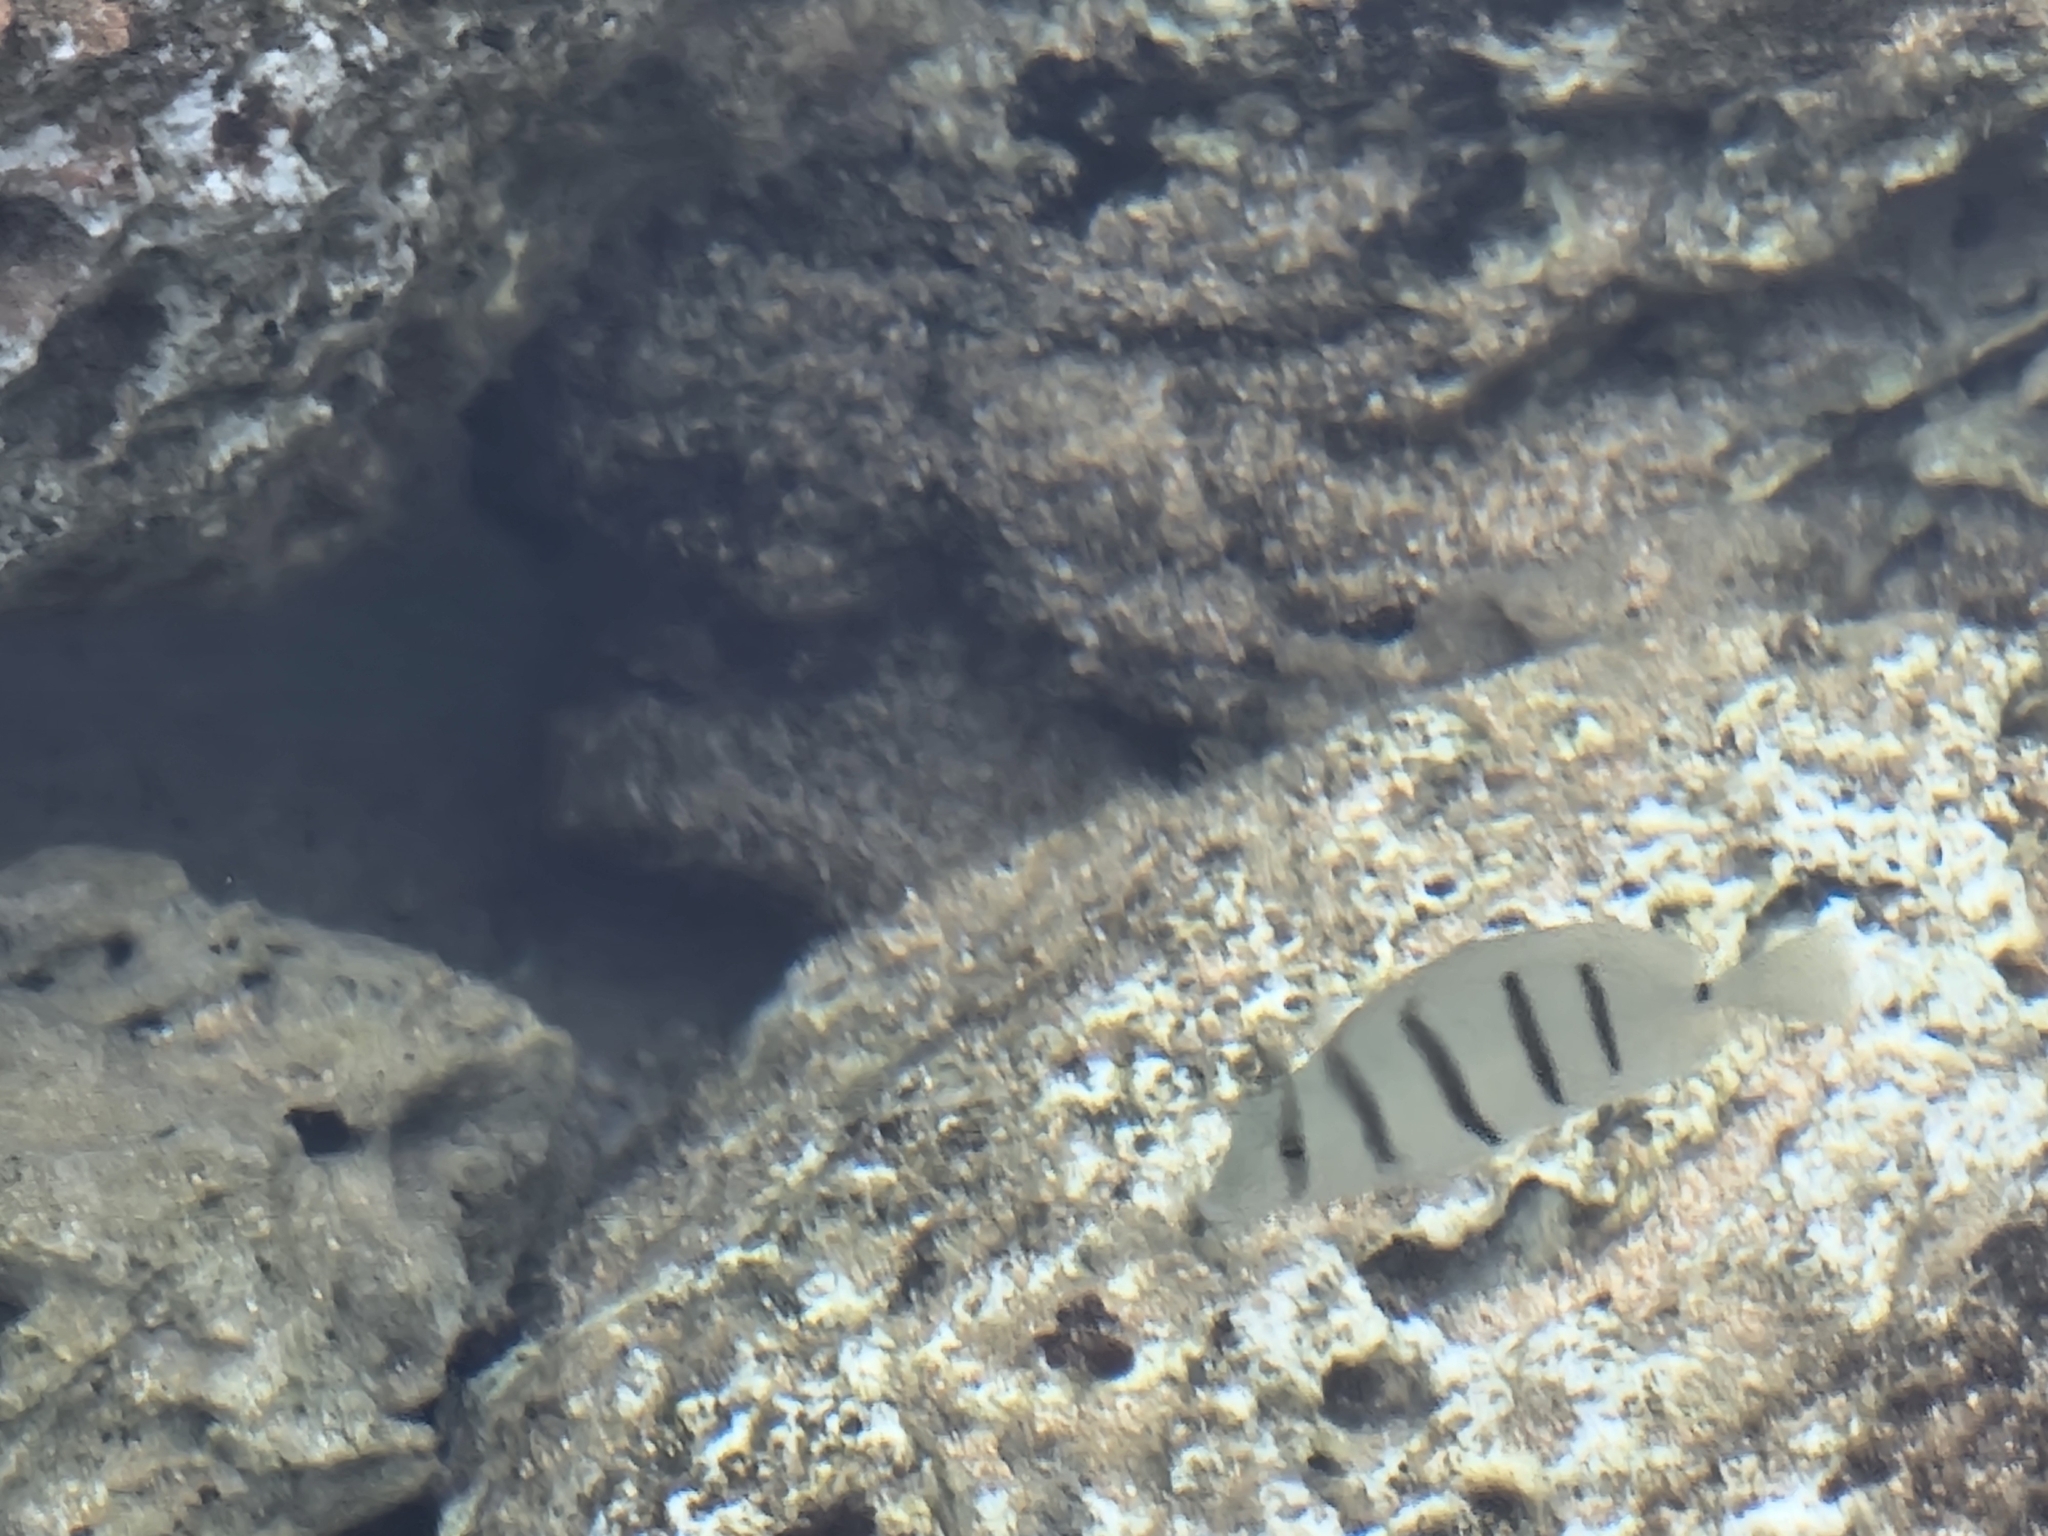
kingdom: Animalia
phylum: Chordata
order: Perciformes
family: Acanthuridae
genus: Acanthurus
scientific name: Acanthurus triostegus
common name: Convict surgeonfish
